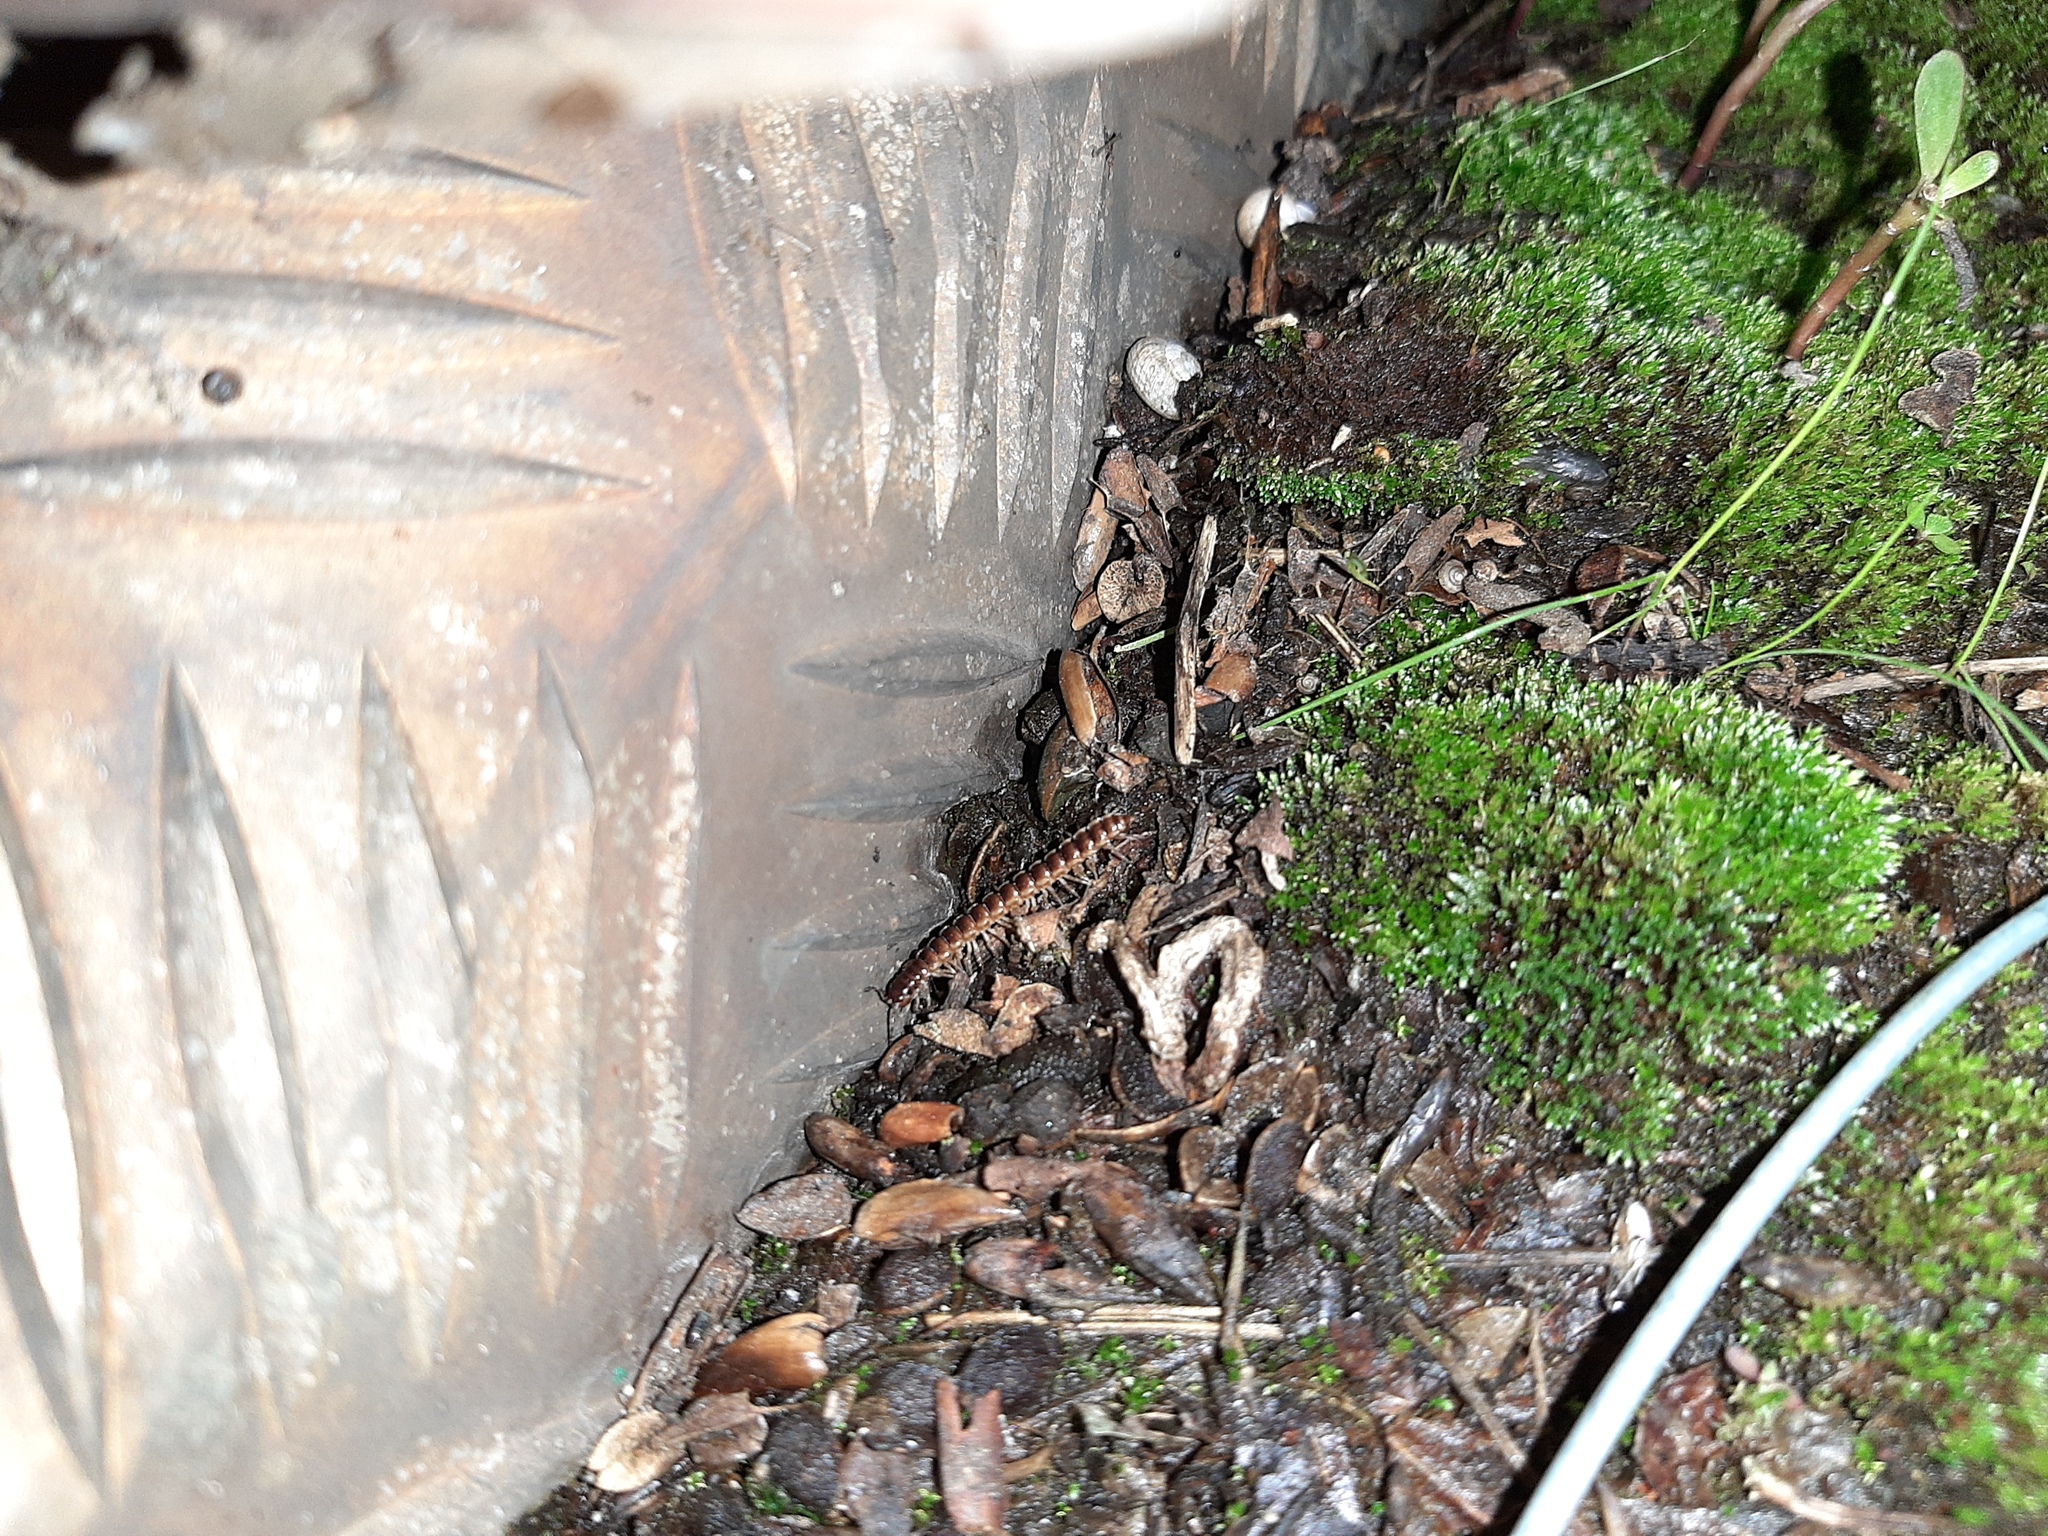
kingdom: Animalia
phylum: Arthropoda
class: Diplopoda
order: Polydesmida
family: Paradoxosomatidae
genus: Oxidus
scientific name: Oxidus gracilis
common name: Greenhouse millipede
